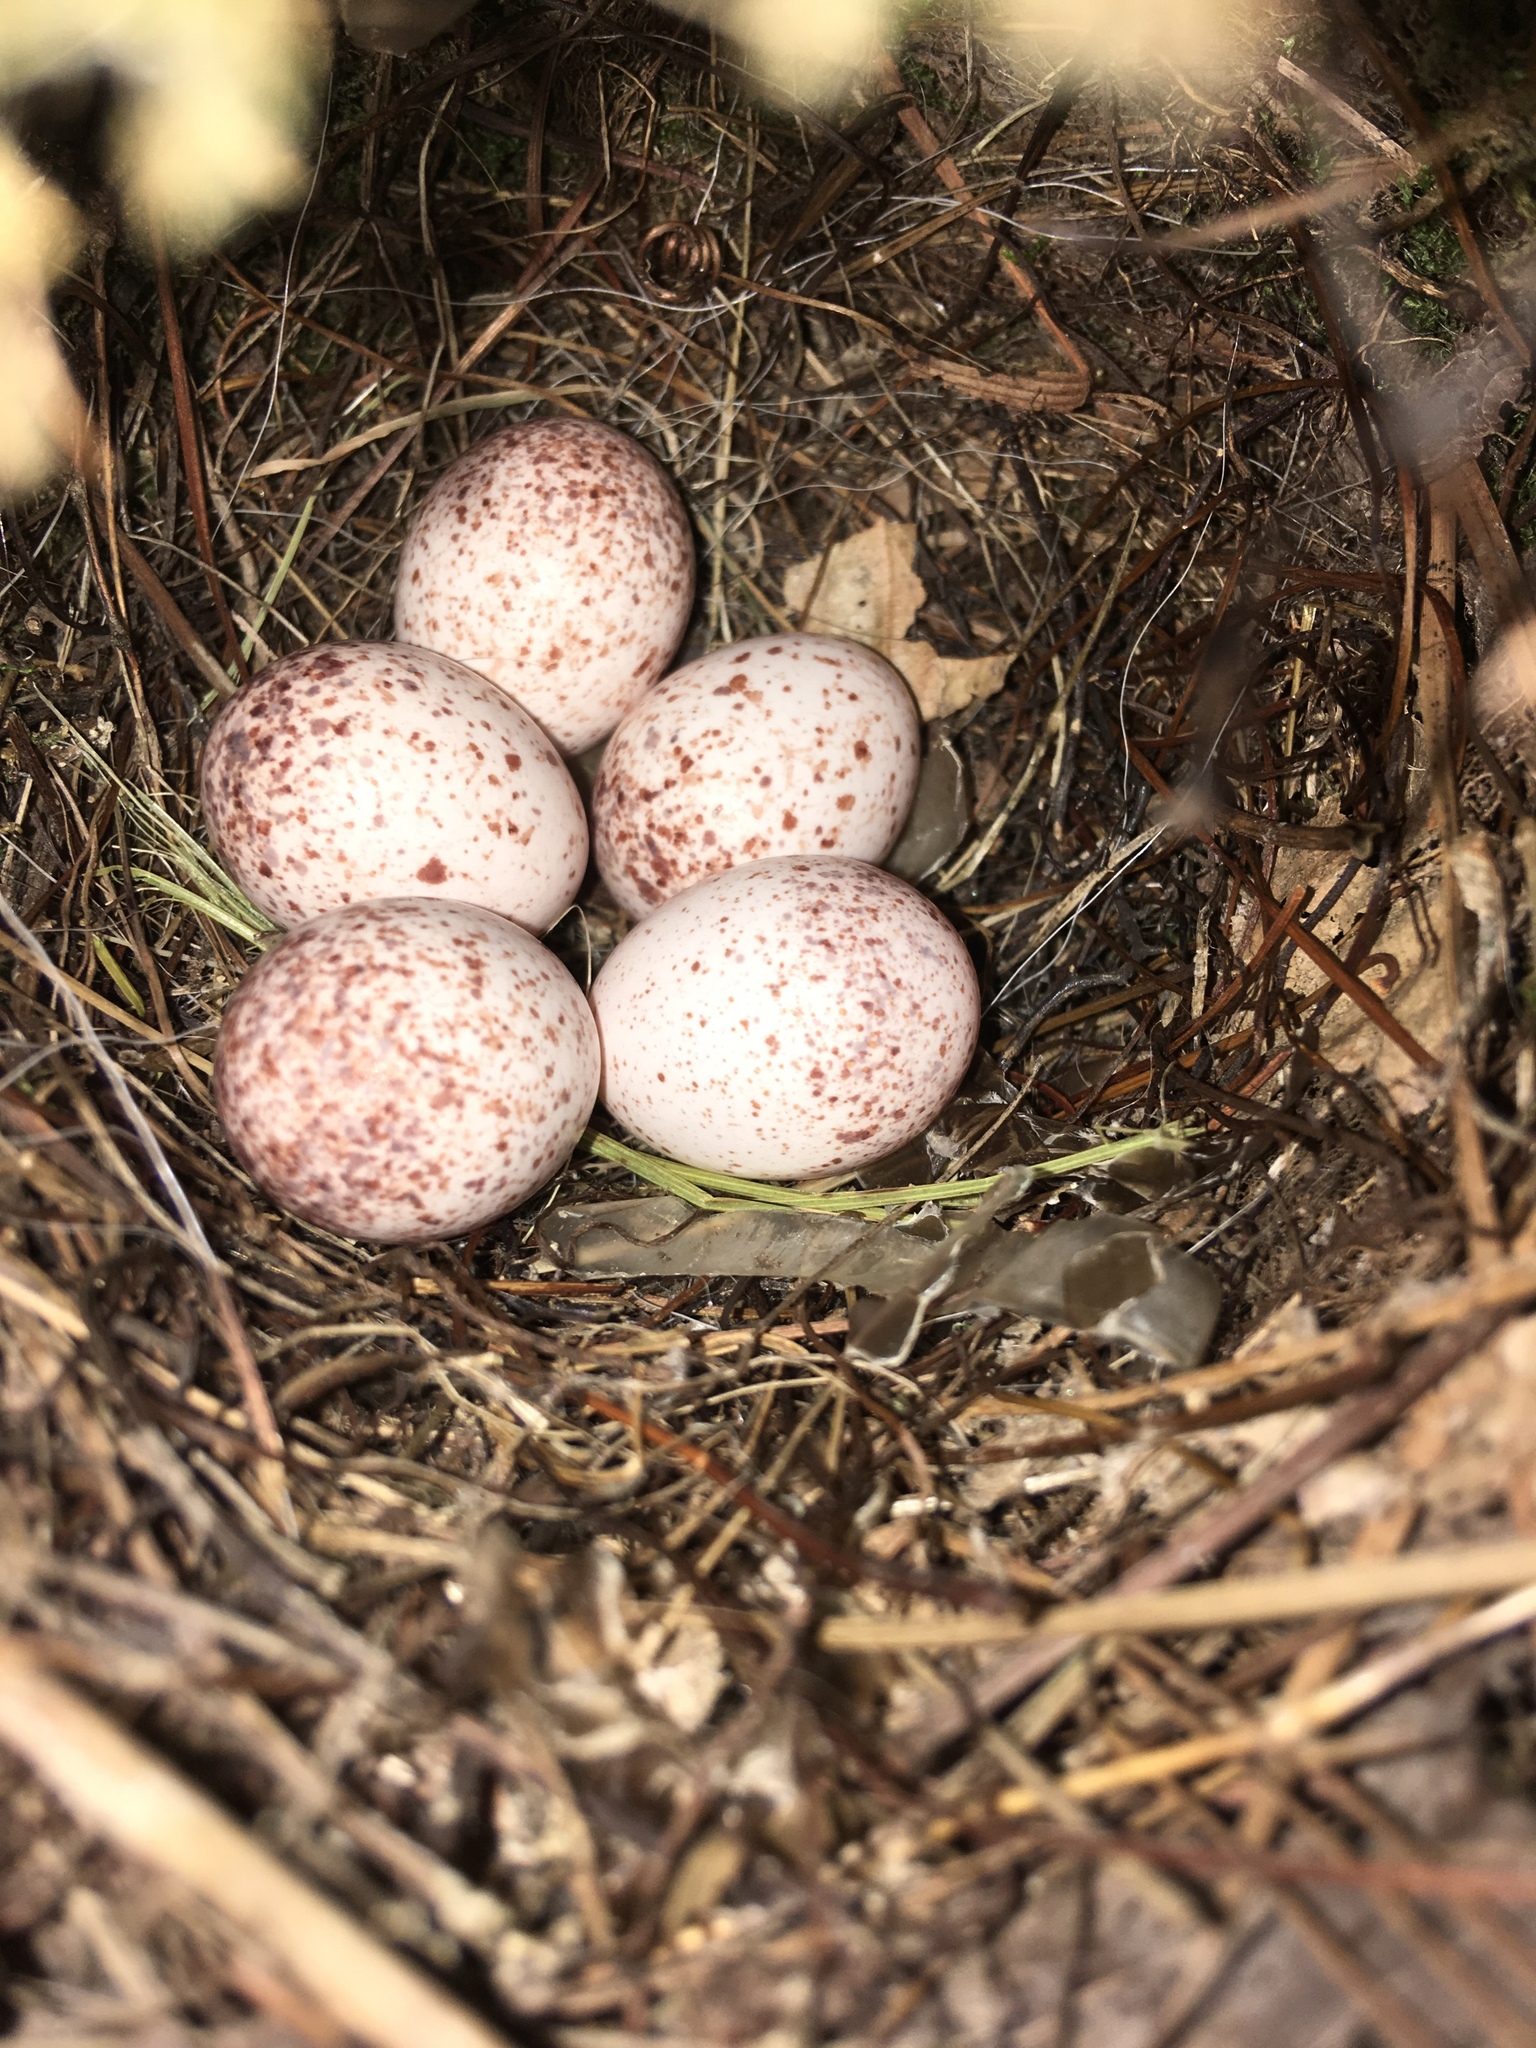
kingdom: Animalia
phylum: Chordata
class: Aves
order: Passeriformes
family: Troglodytidae
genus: Thryothorus
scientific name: Thryothorus ludovicianus
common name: Carolina wren
